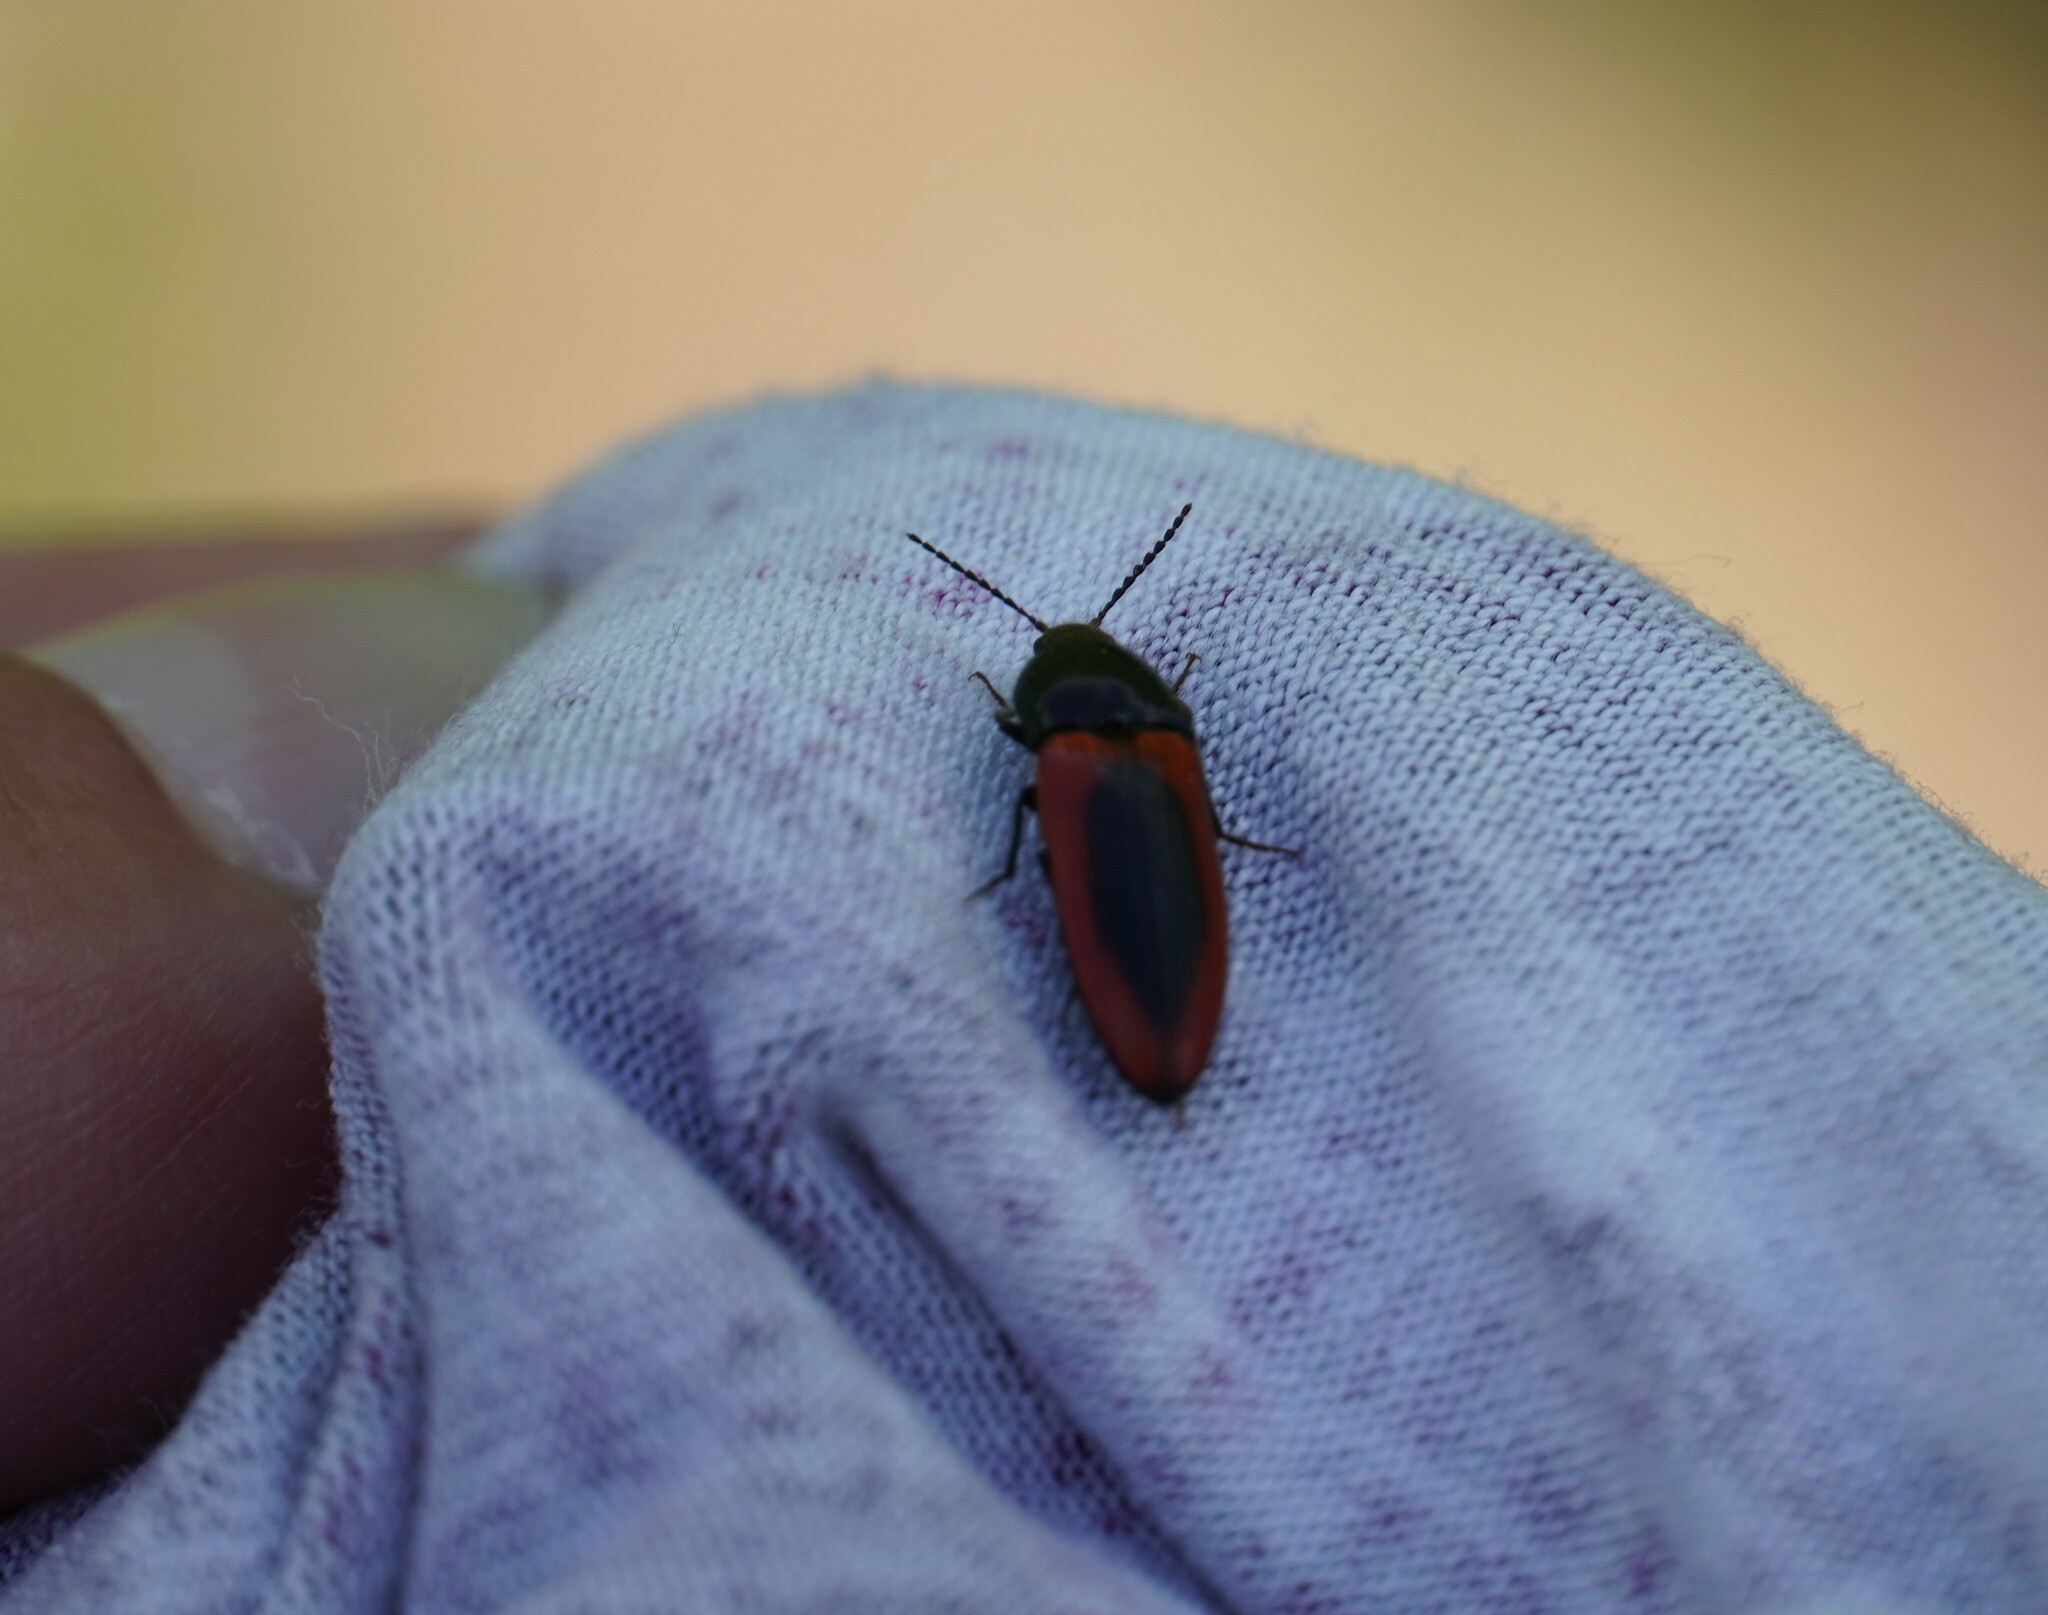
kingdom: Animalia
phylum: Arthropoda
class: Insecta
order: Coleoptera
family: Elateridae
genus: Ampedus
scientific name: Ampedus sanguinolentus
